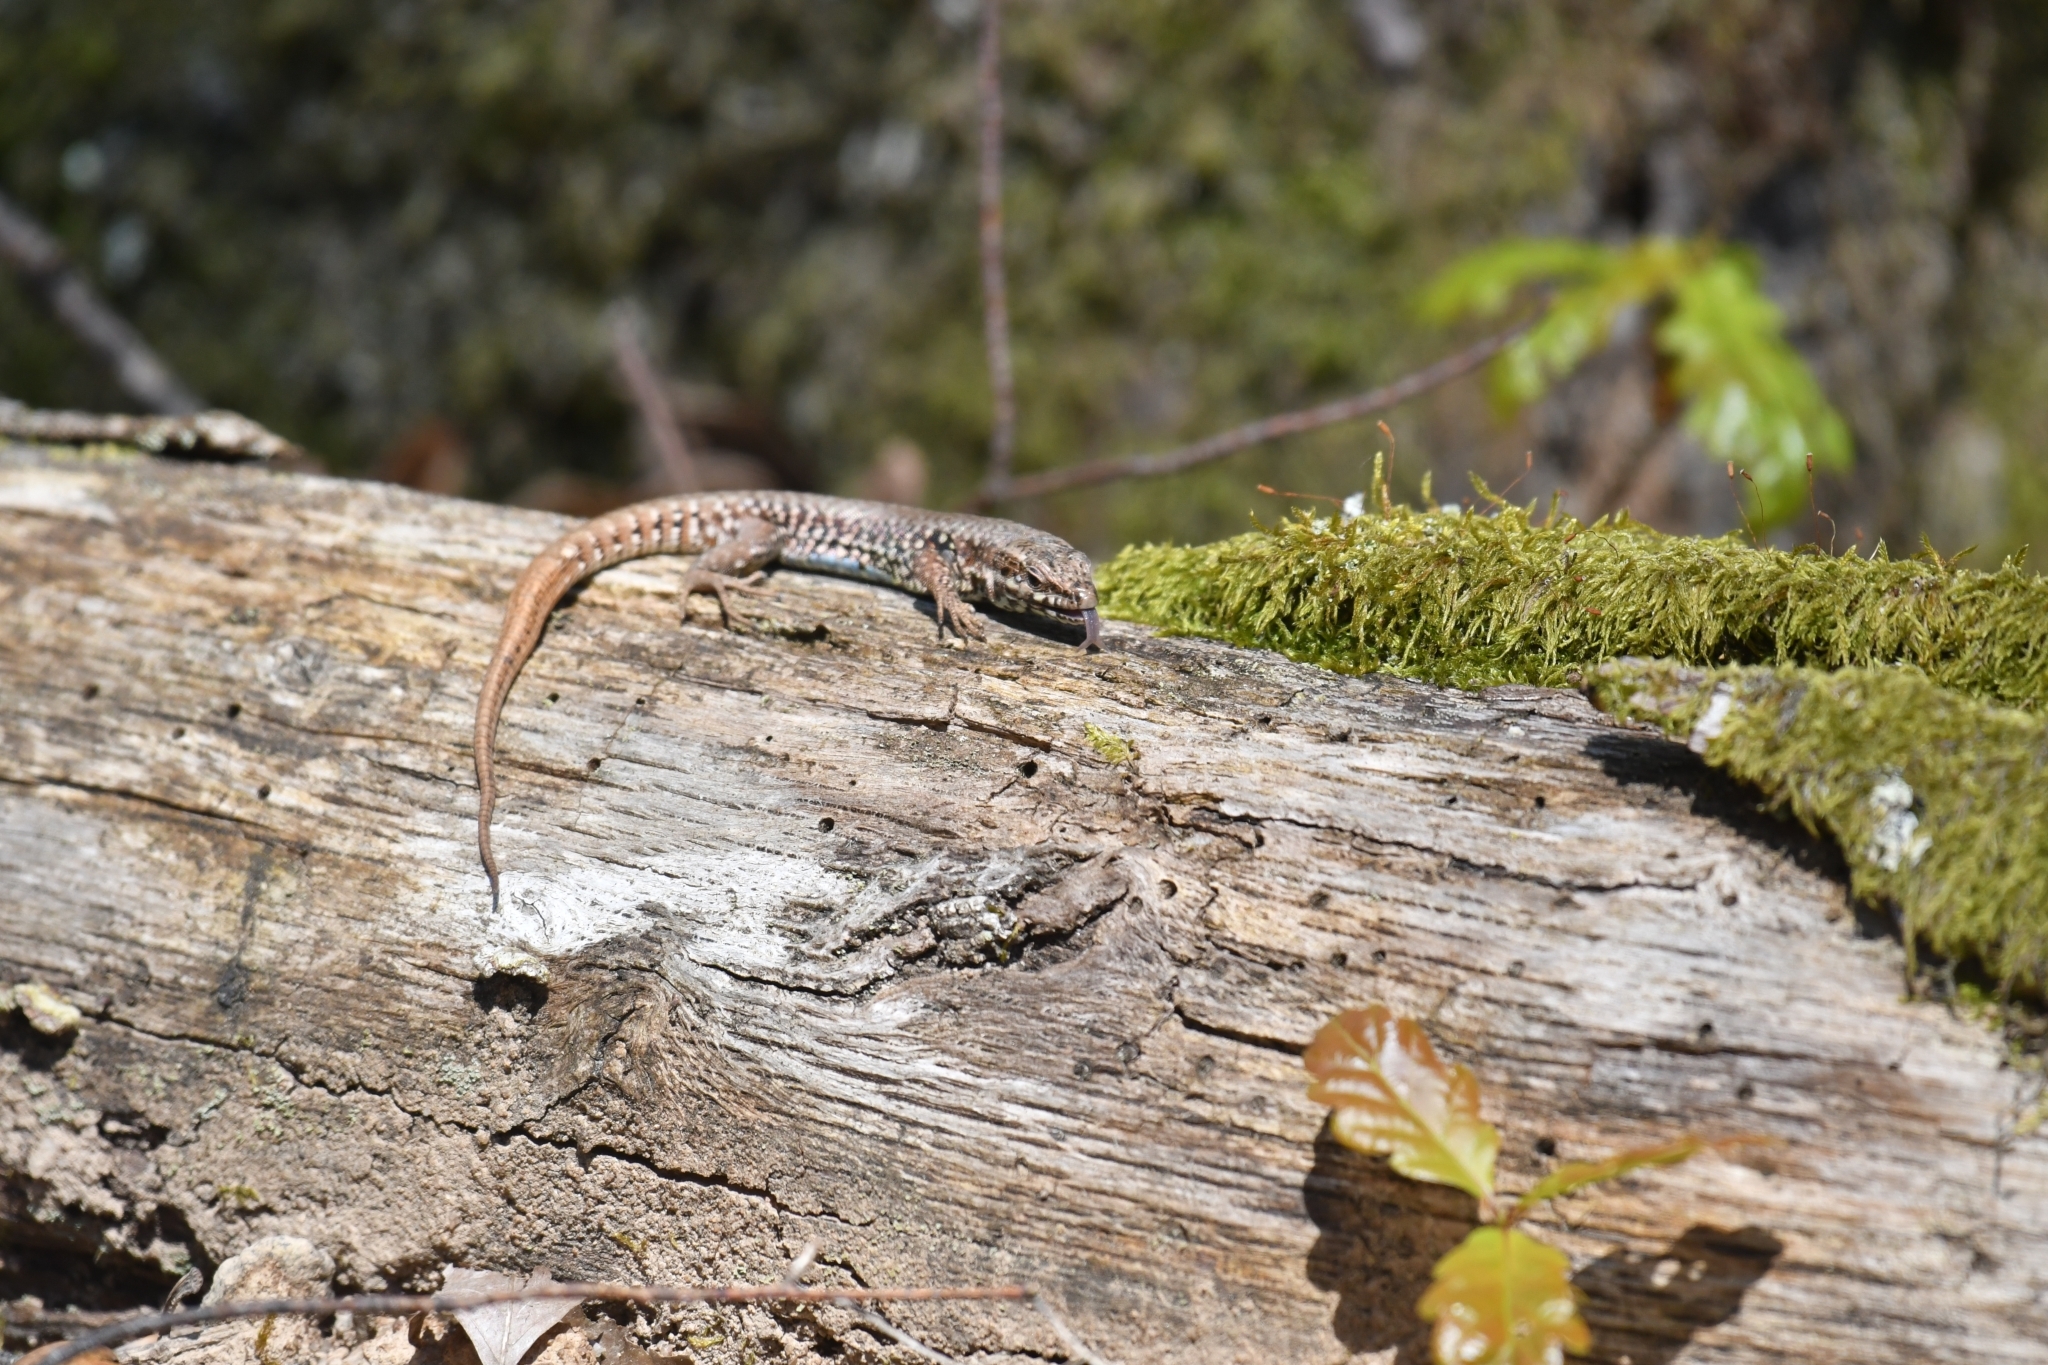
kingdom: Animalia
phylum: Chordata
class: Squamata
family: Lacertidae
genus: Podarcis
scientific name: Podarcis muralis
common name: Common wall lizard
